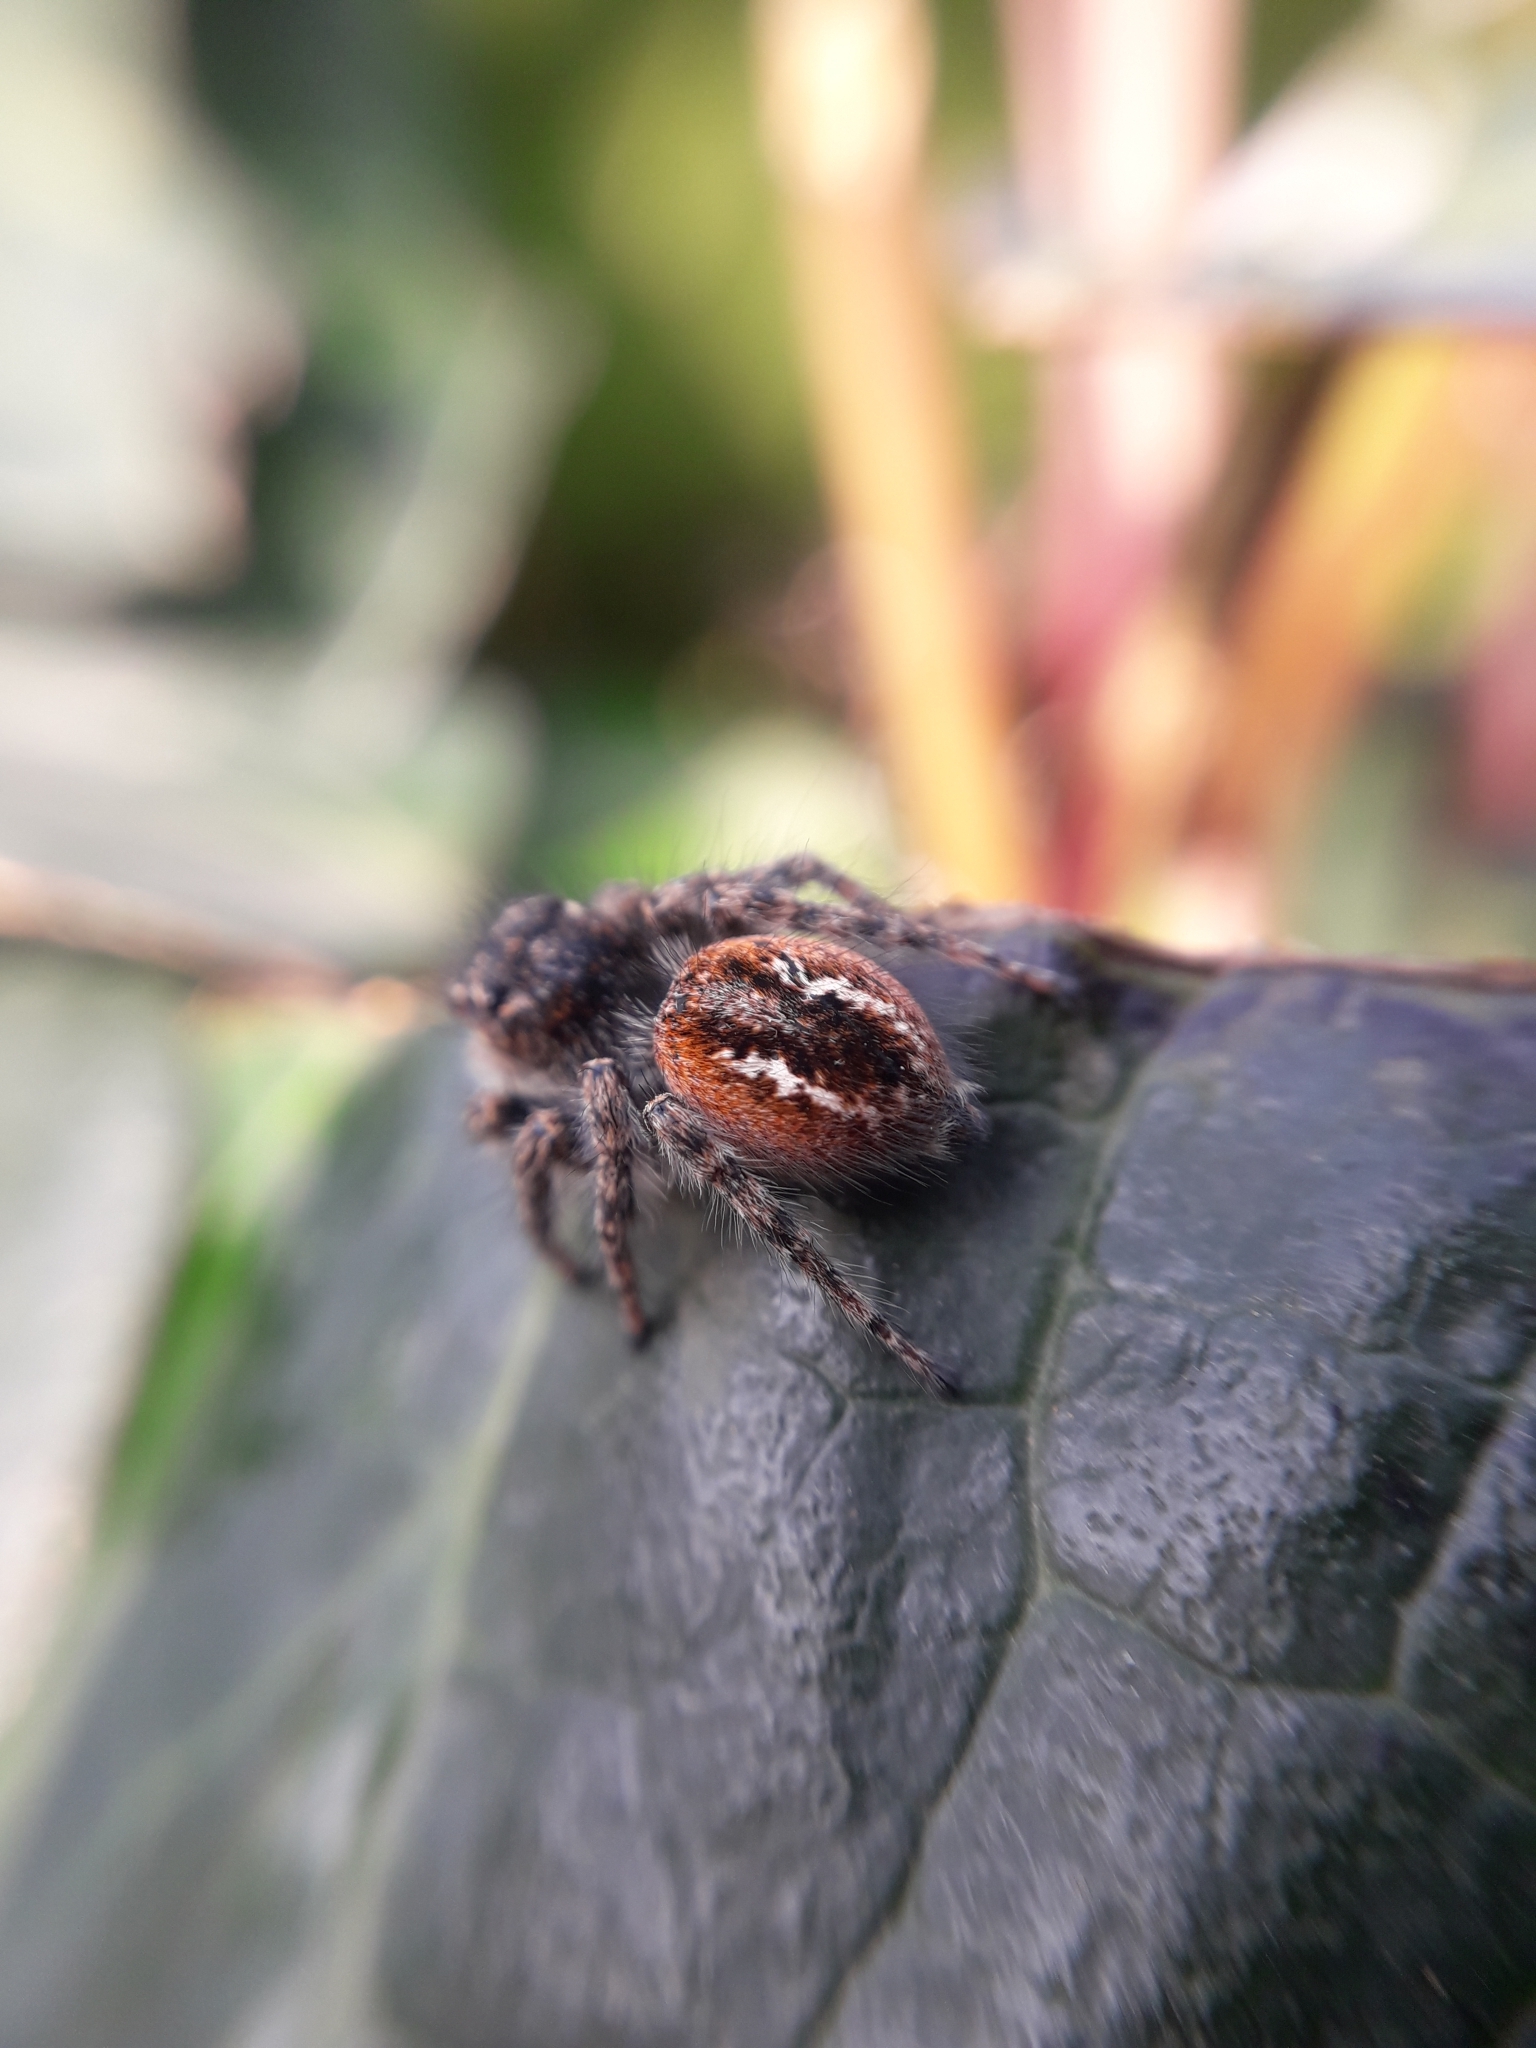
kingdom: Animalia
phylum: Arthropoda
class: Arachnida
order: Araneae
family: Salticidae
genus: Philaeus
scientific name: Philaeus chrysops
